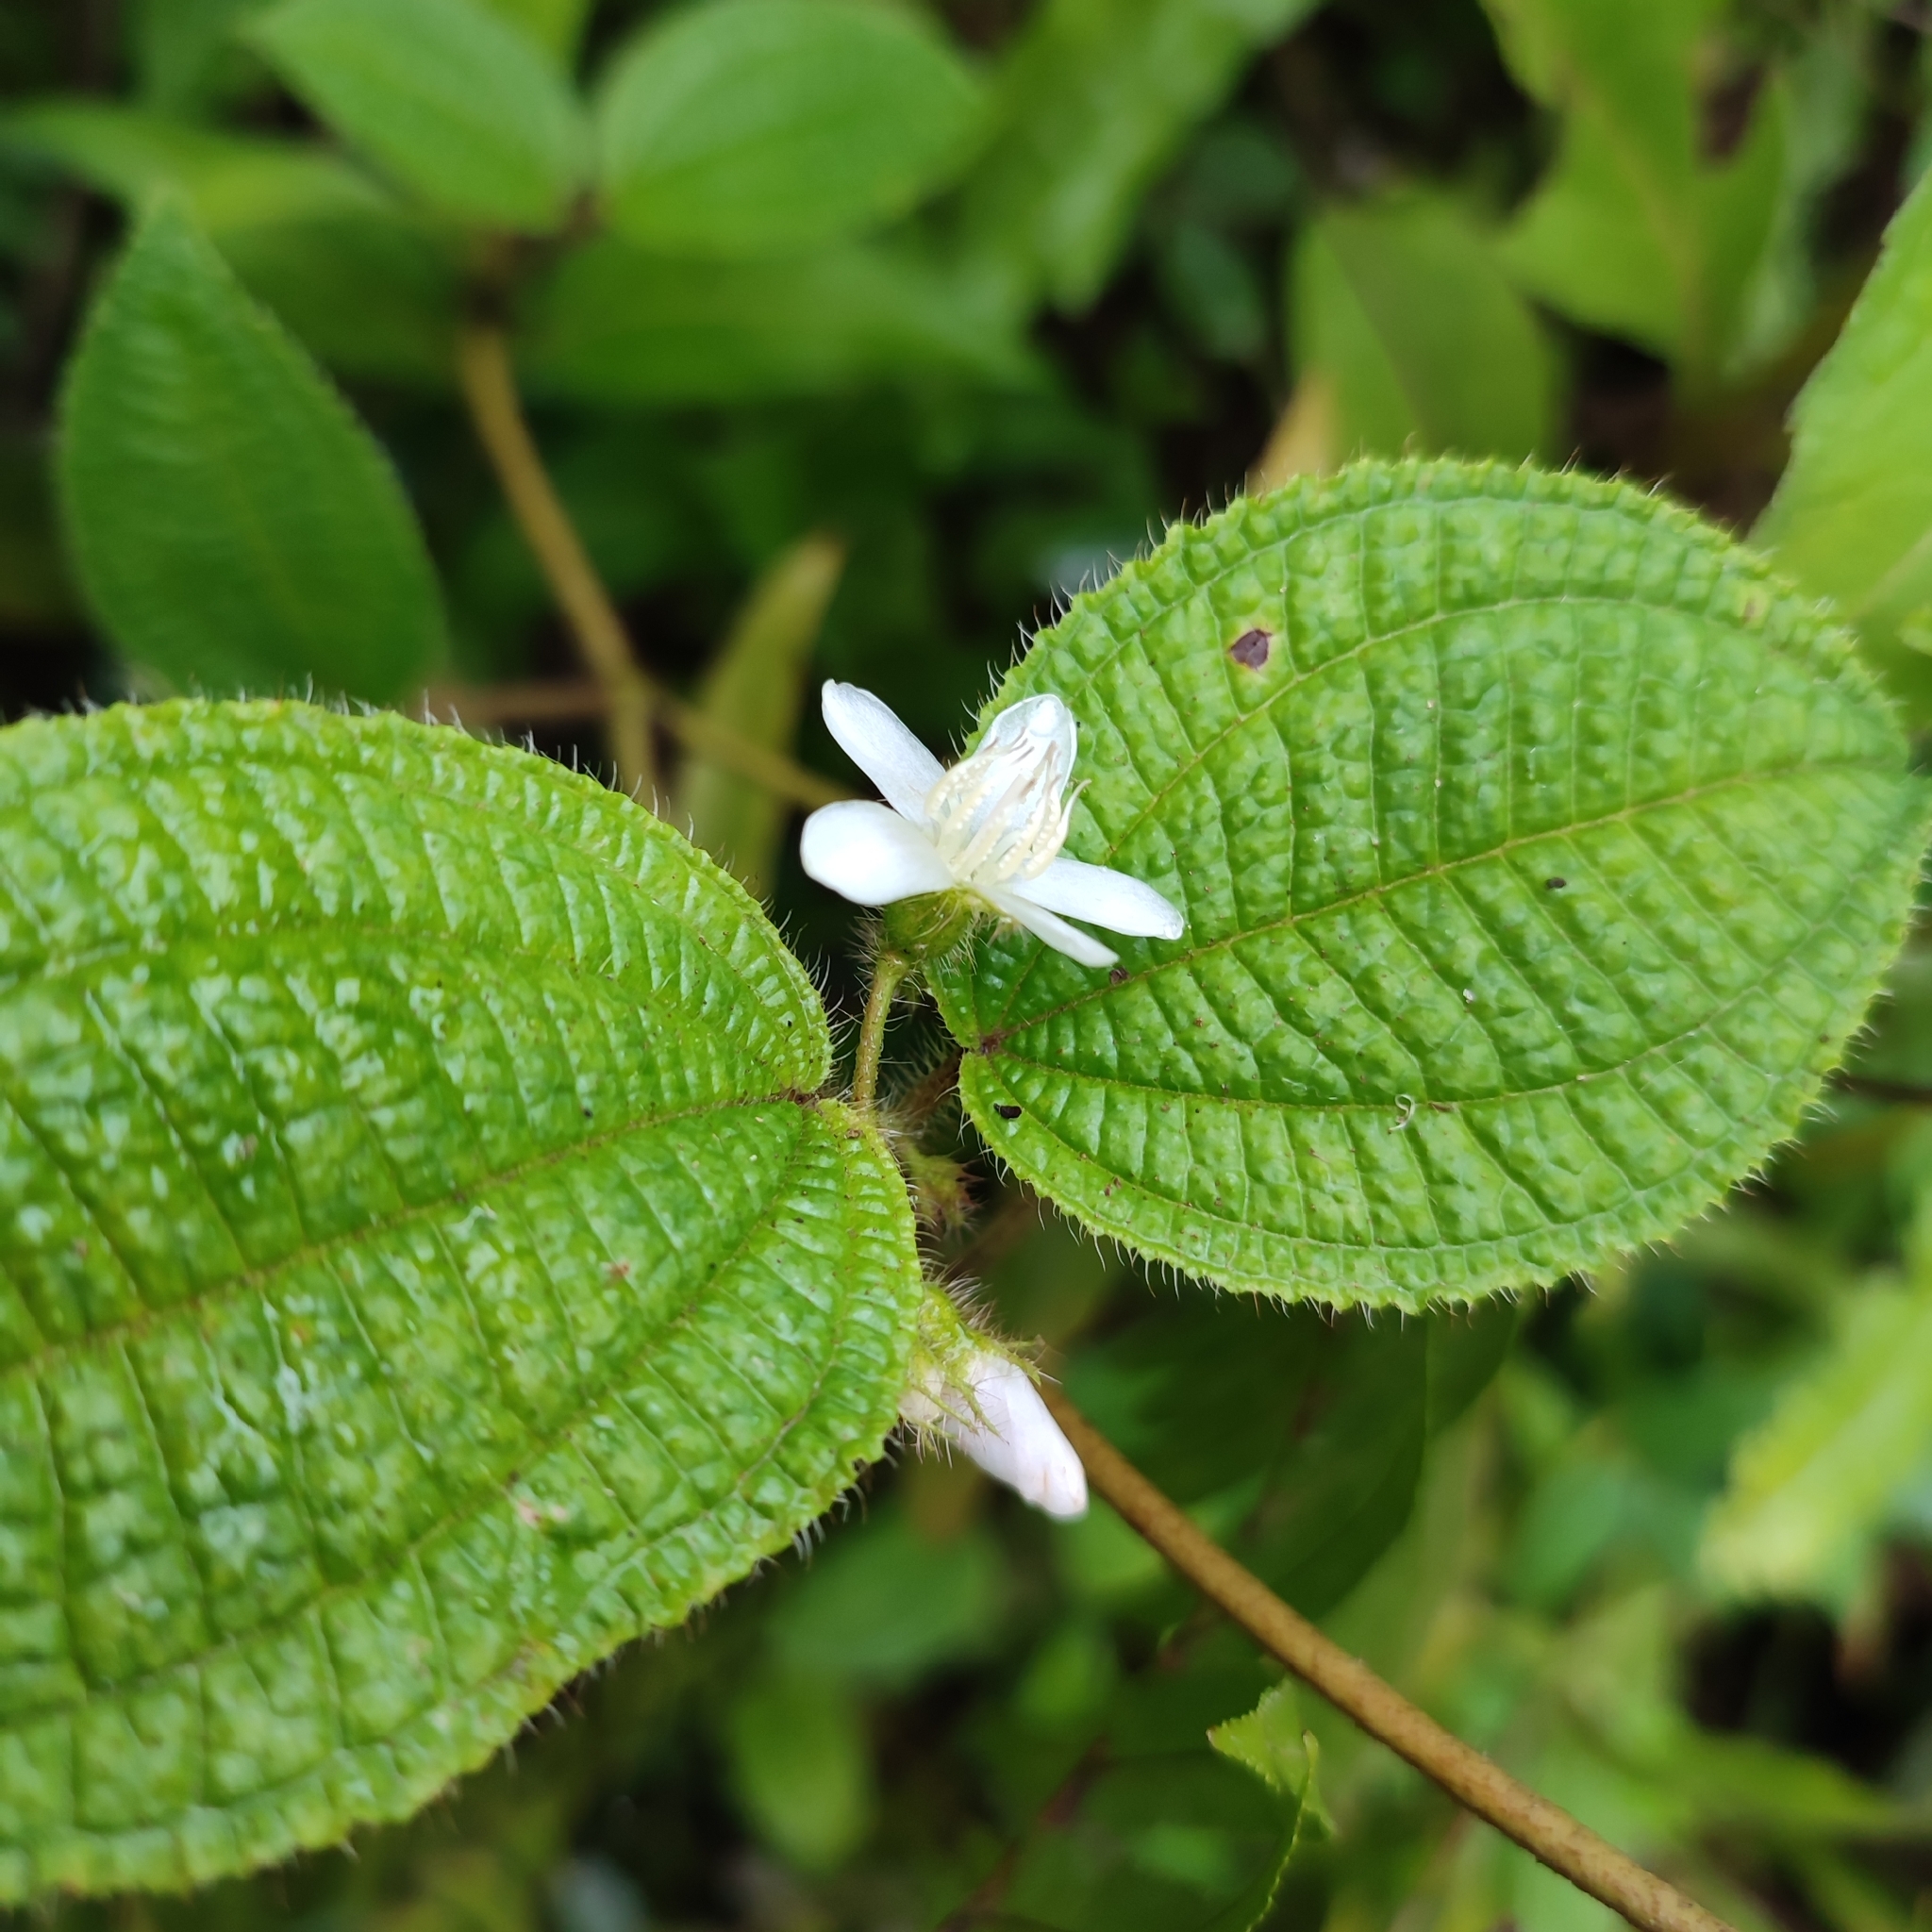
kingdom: Plantae
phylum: Tracheophyta
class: Magnoliopsida
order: Myrtales
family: Melastomataceae
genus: Miconia
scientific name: Miconia crenata
